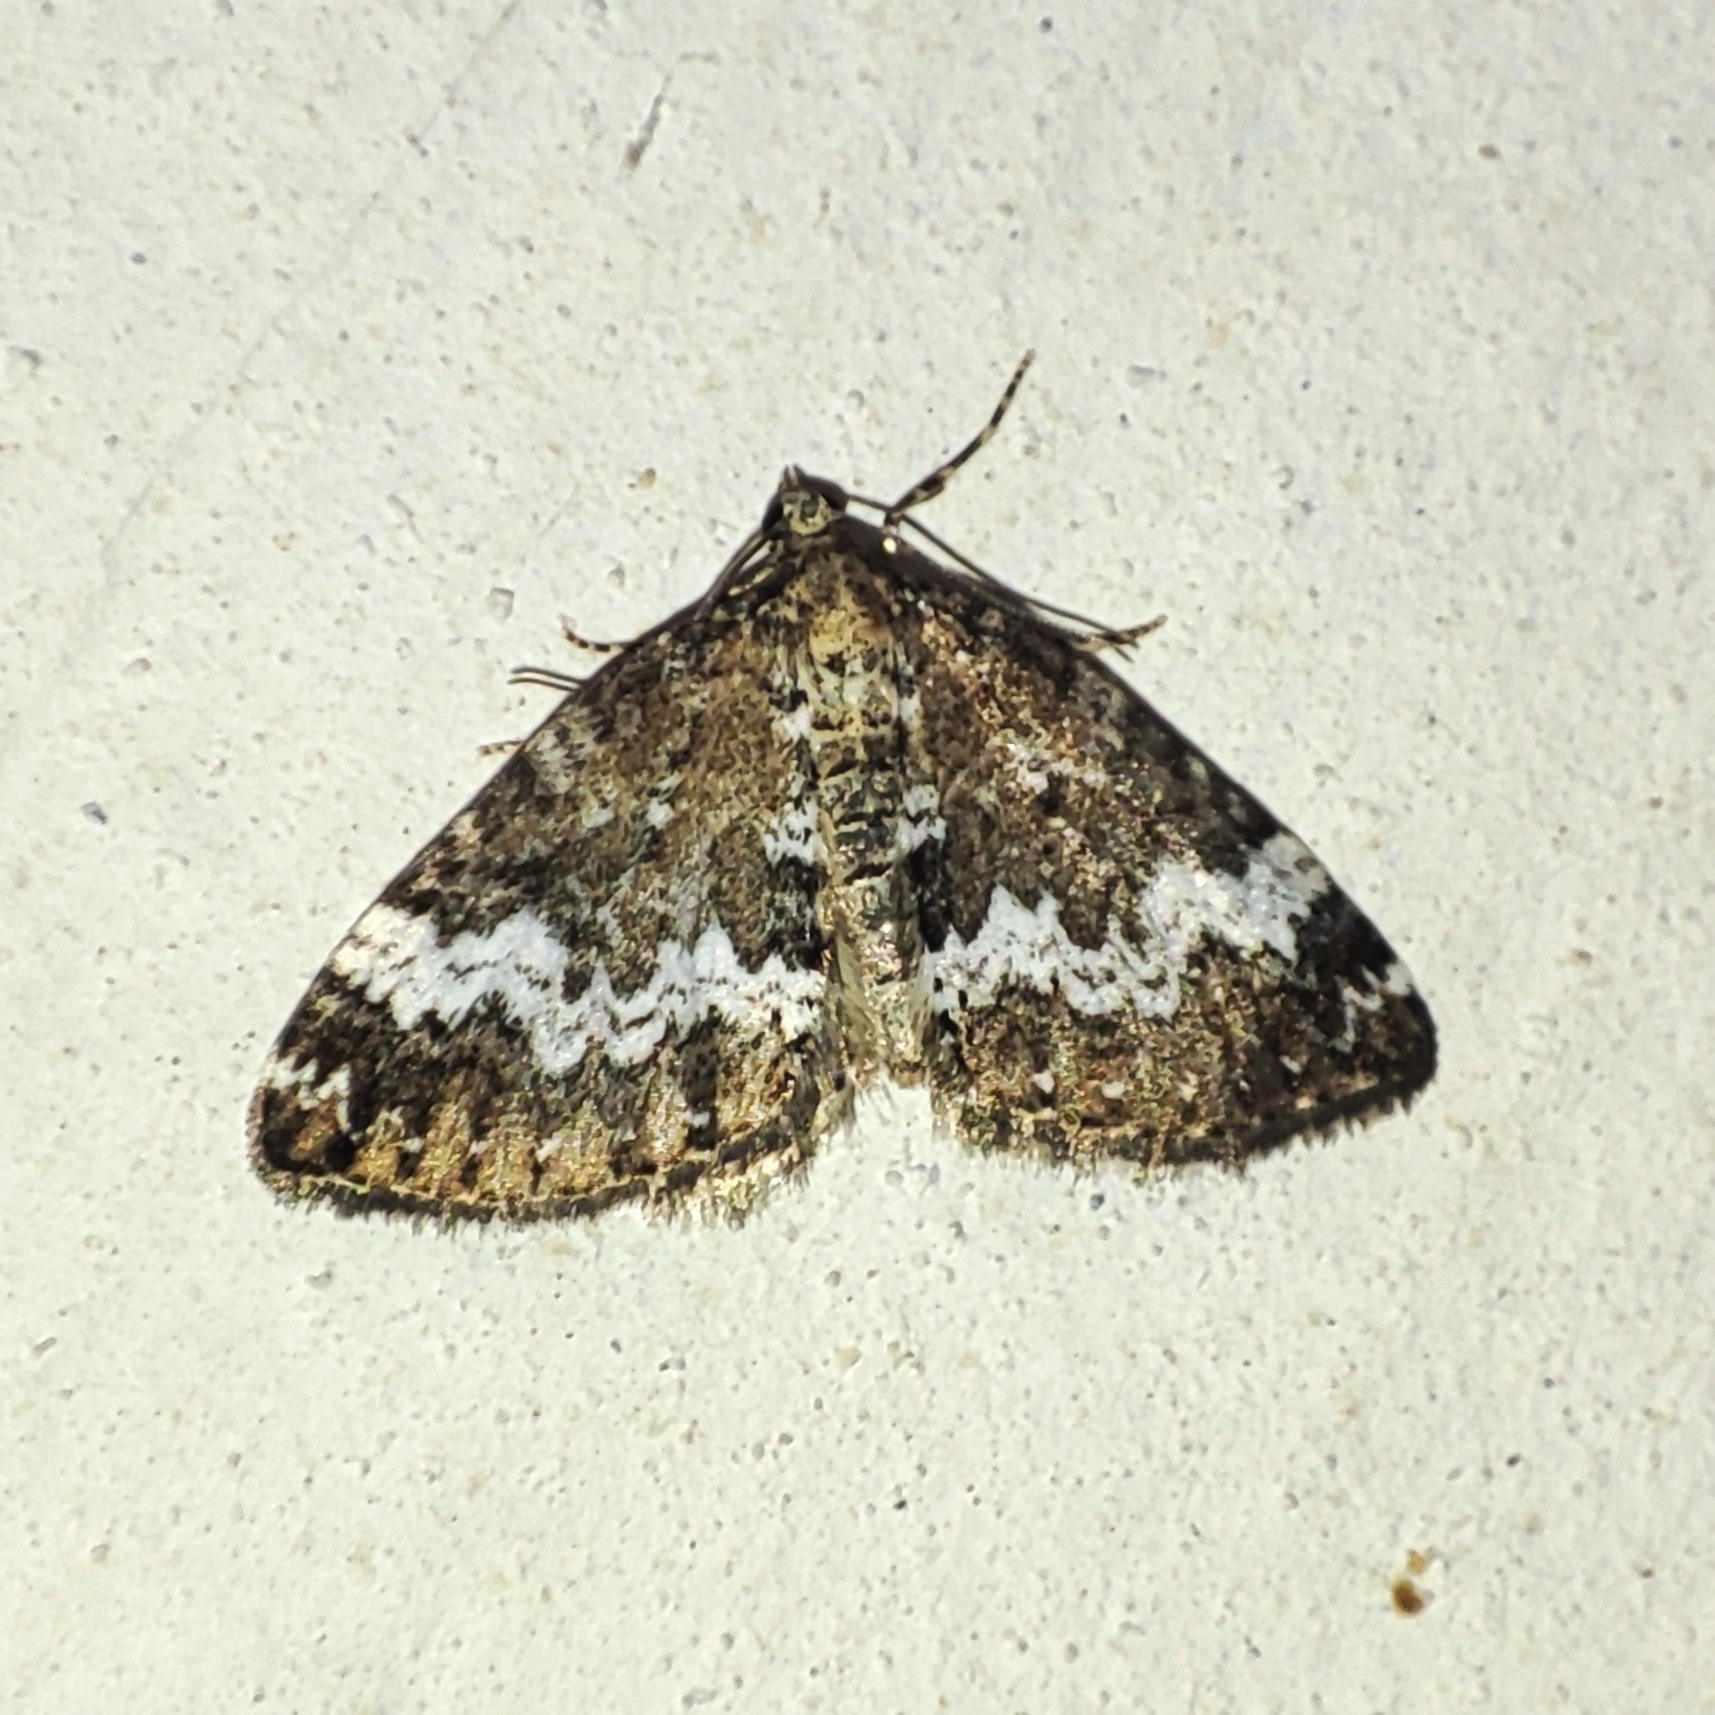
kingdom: Animalia
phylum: Arthropoda
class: Insecta
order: Lepidoptera
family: Geometridae
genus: Perizoma
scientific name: Perizoma alchemillata
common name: Small rivulet
